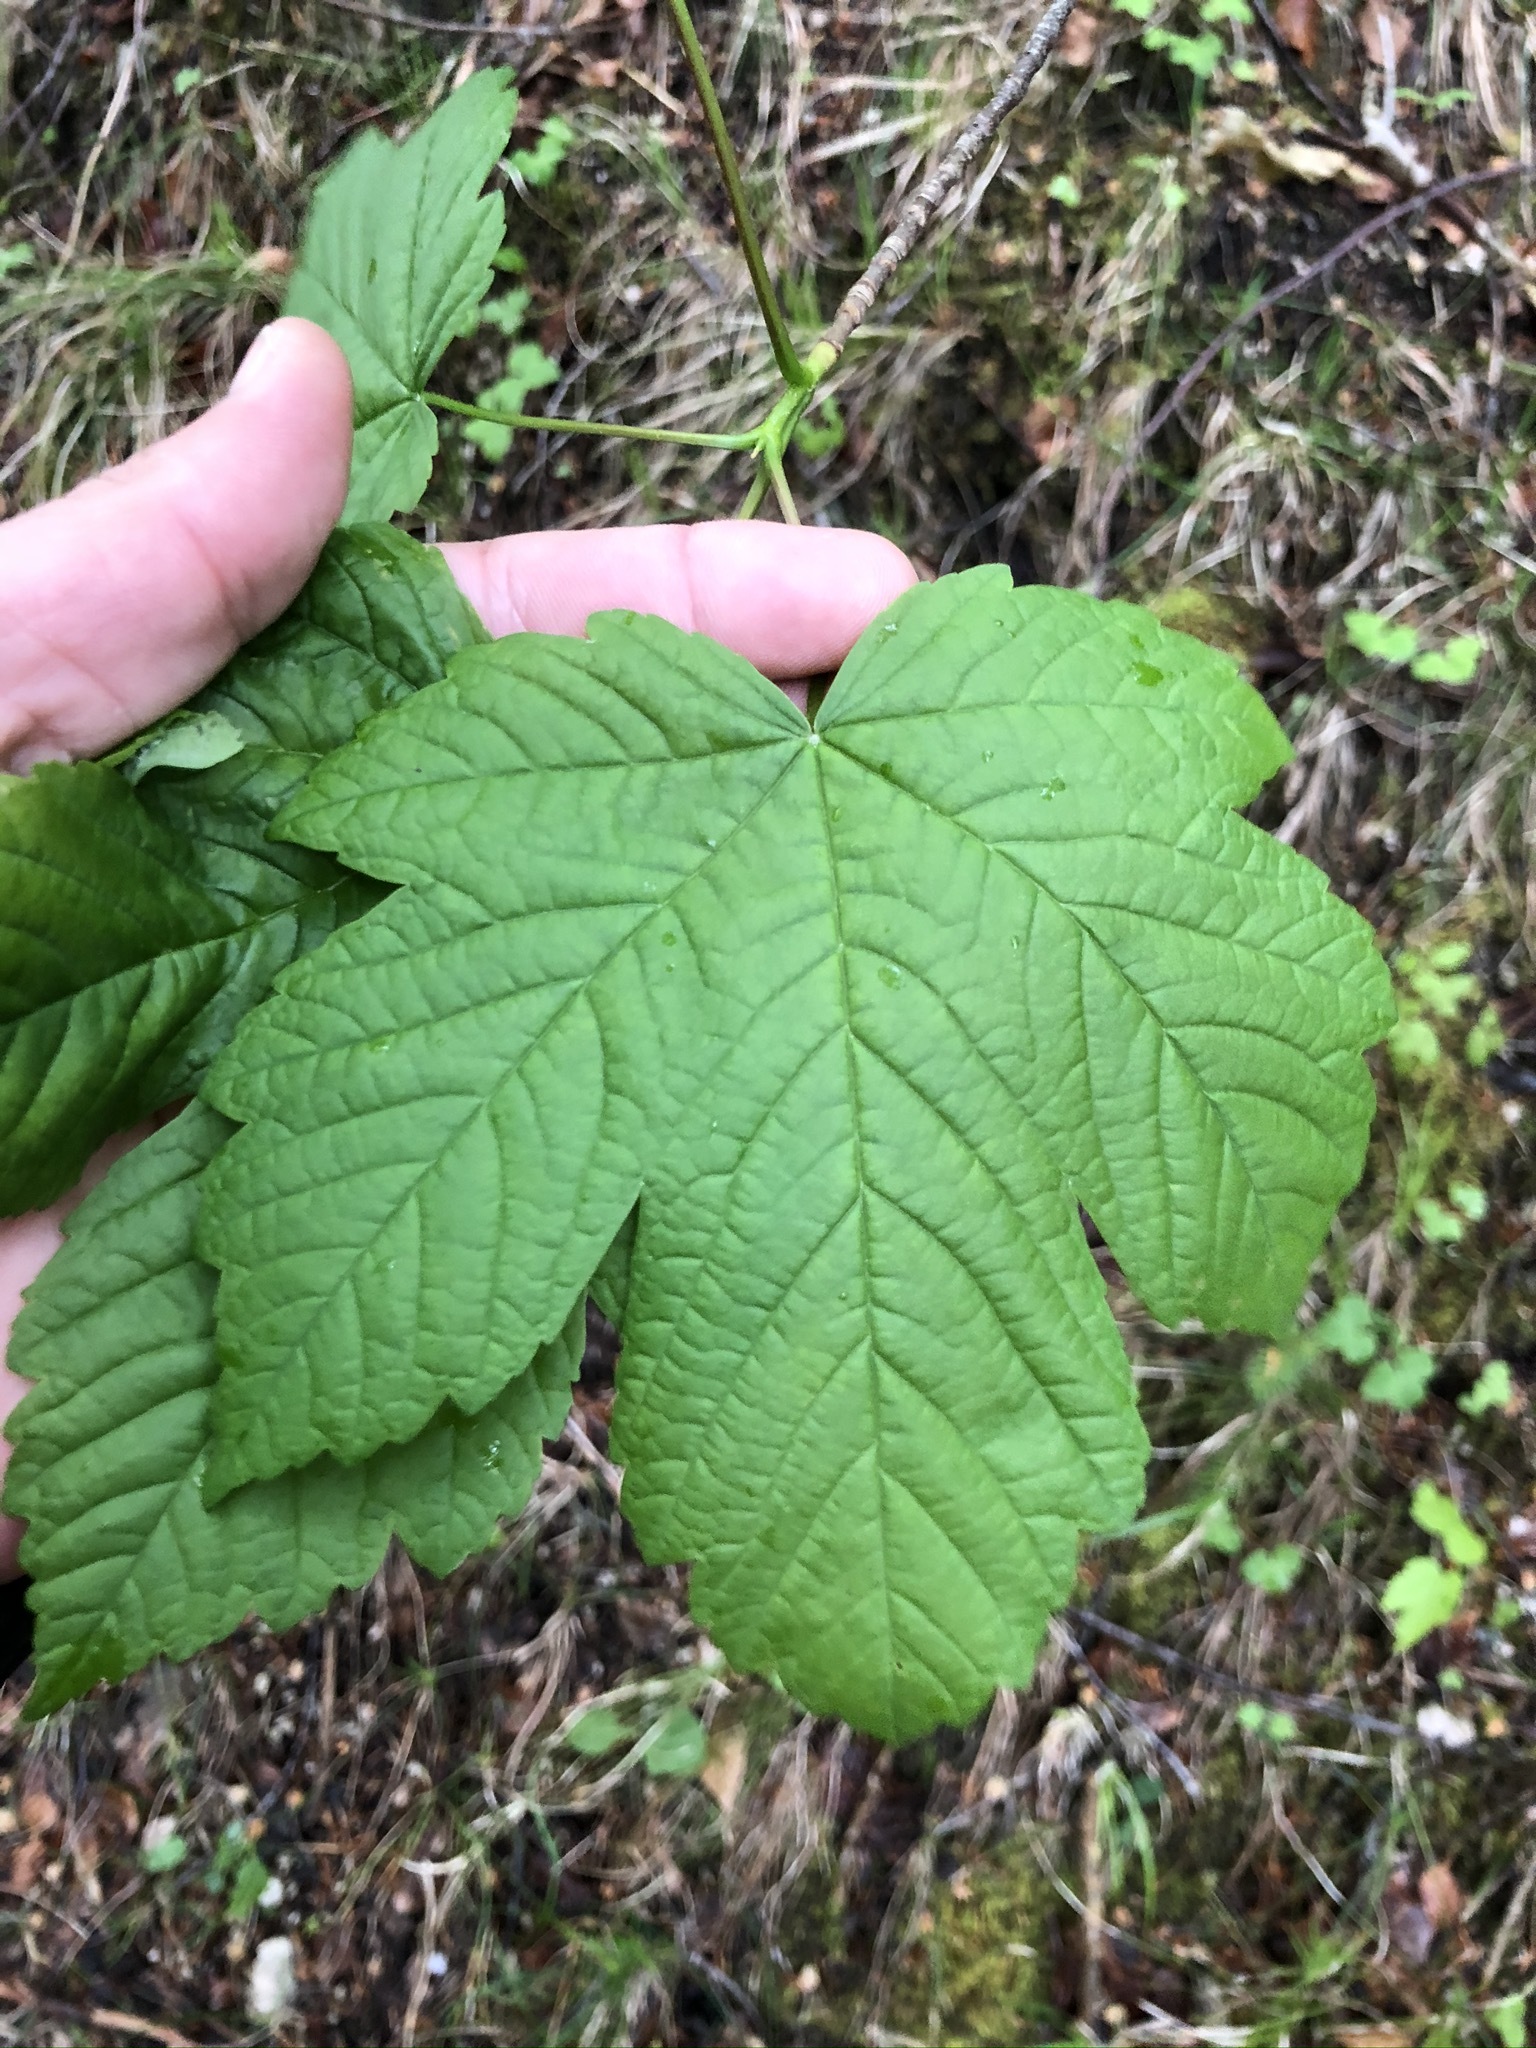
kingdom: Plantae
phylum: Tracheophyta
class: Magnoliopsida
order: Sapindales
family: Sapindaceae
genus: Acer
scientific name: Acer pseudoplatanus
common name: Sycamore
